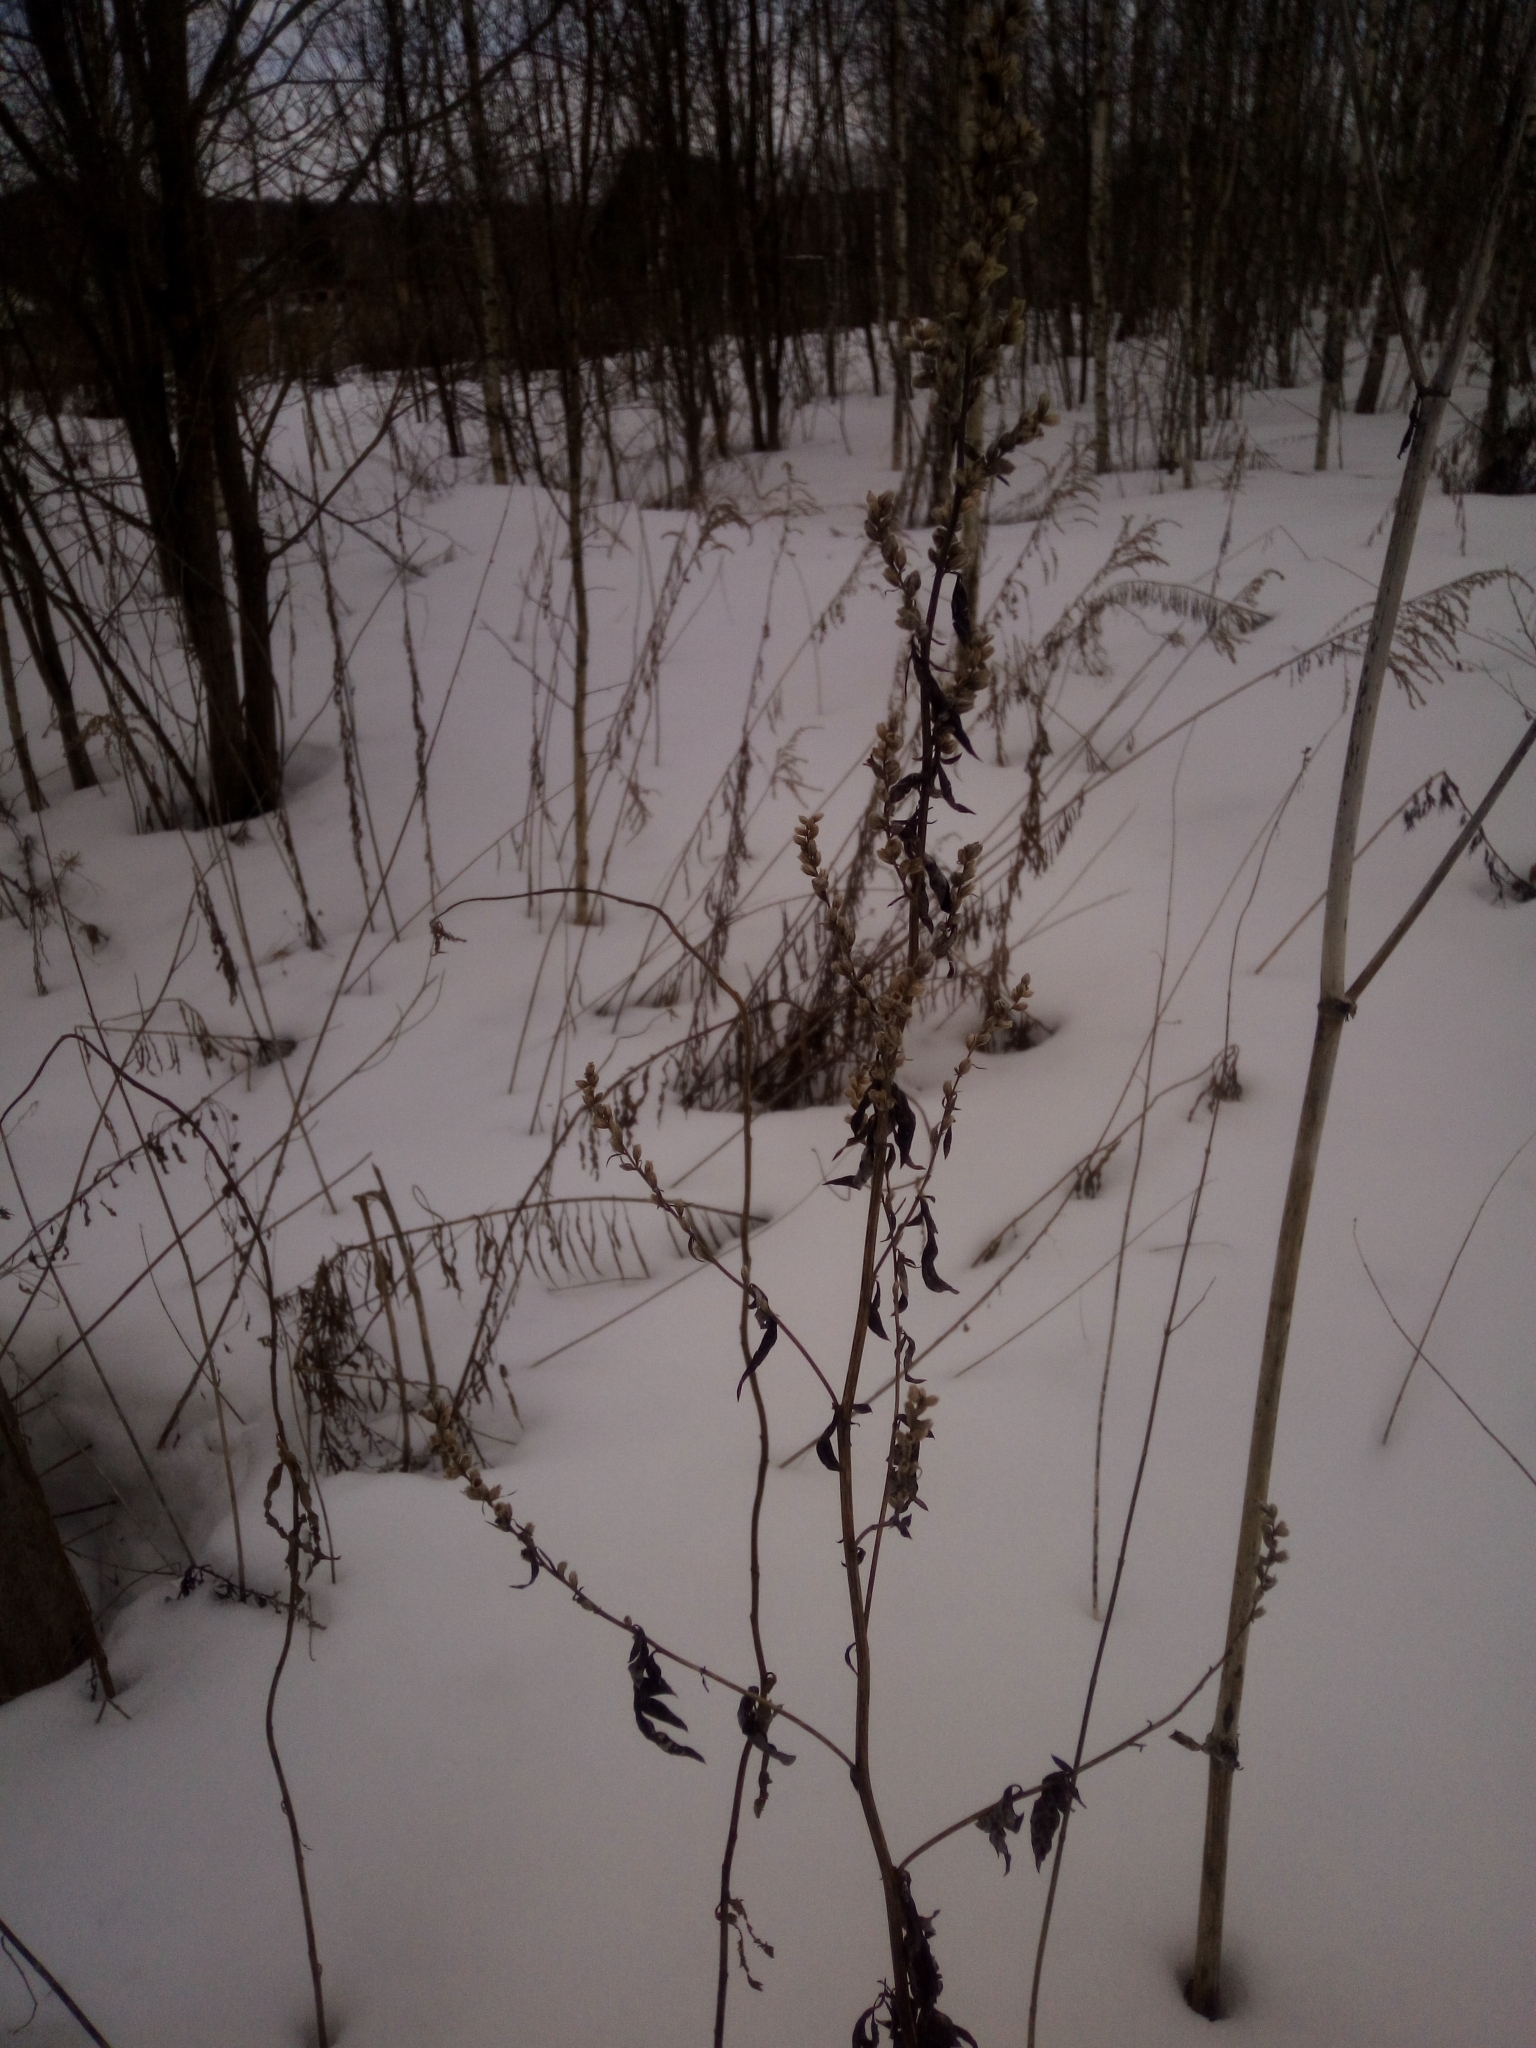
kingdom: Plantae
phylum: Tracheophyta
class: Magnoliopsida
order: Asterales
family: Asteraceae
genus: Artemisia
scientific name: Artemisia vulgaris
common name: Mugwort
